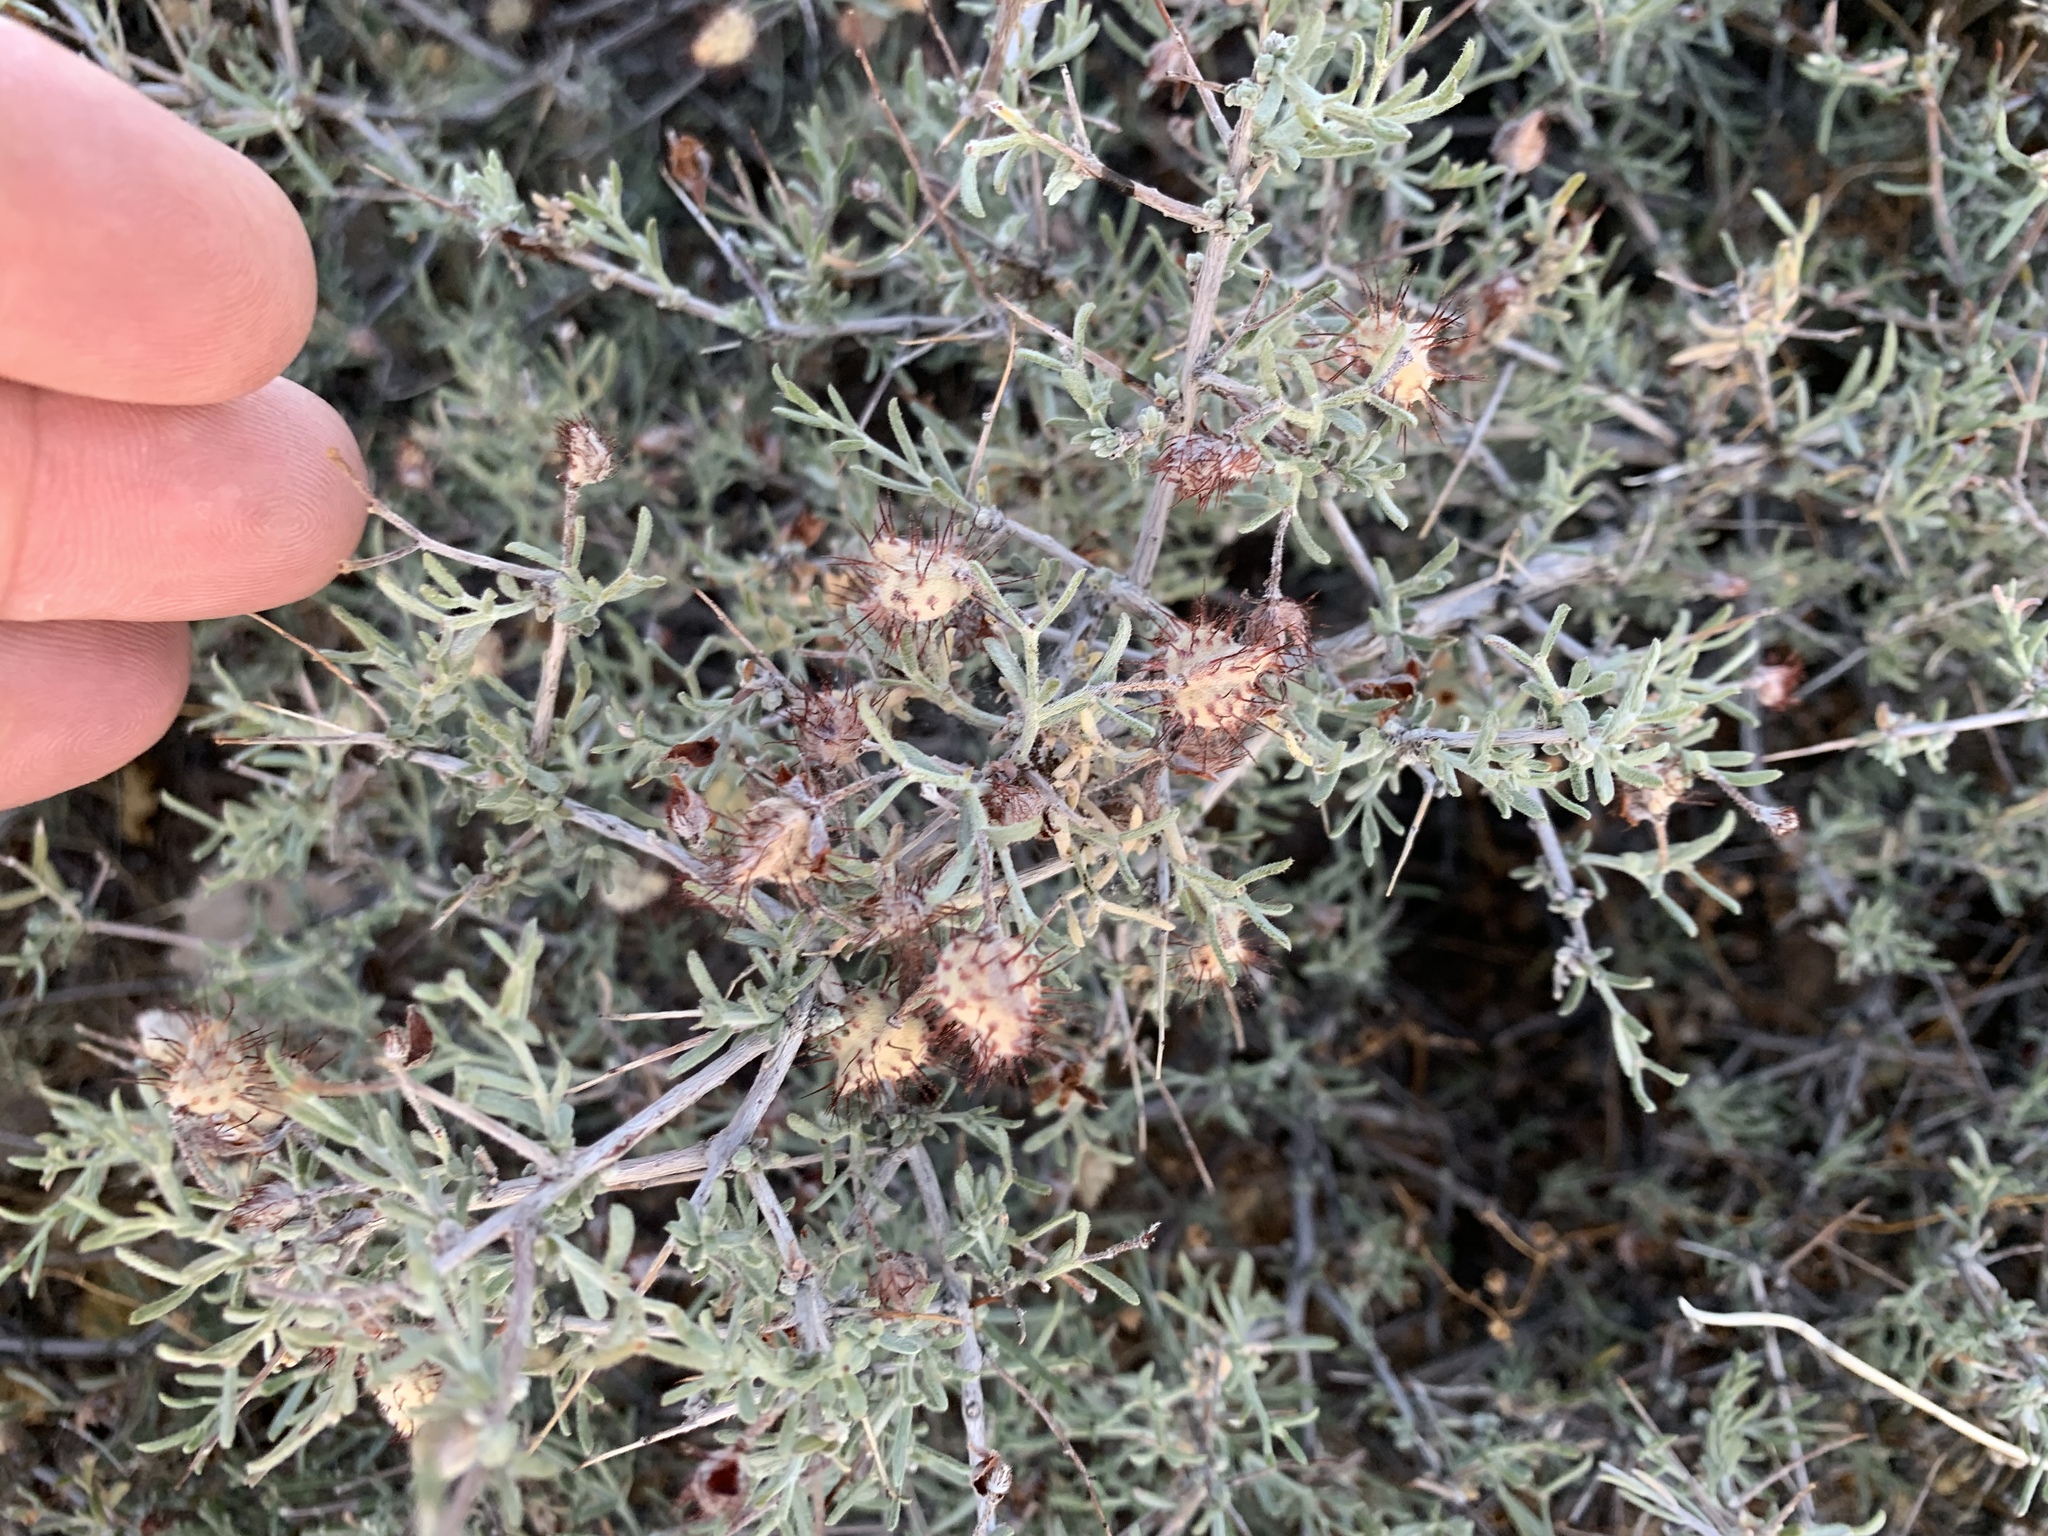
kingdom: Plantae
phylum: Tracheophyta
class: Magnoliopsida
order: Zygophyllales
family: Krameriaceae
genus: Krameria
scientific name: Krameria erecta
